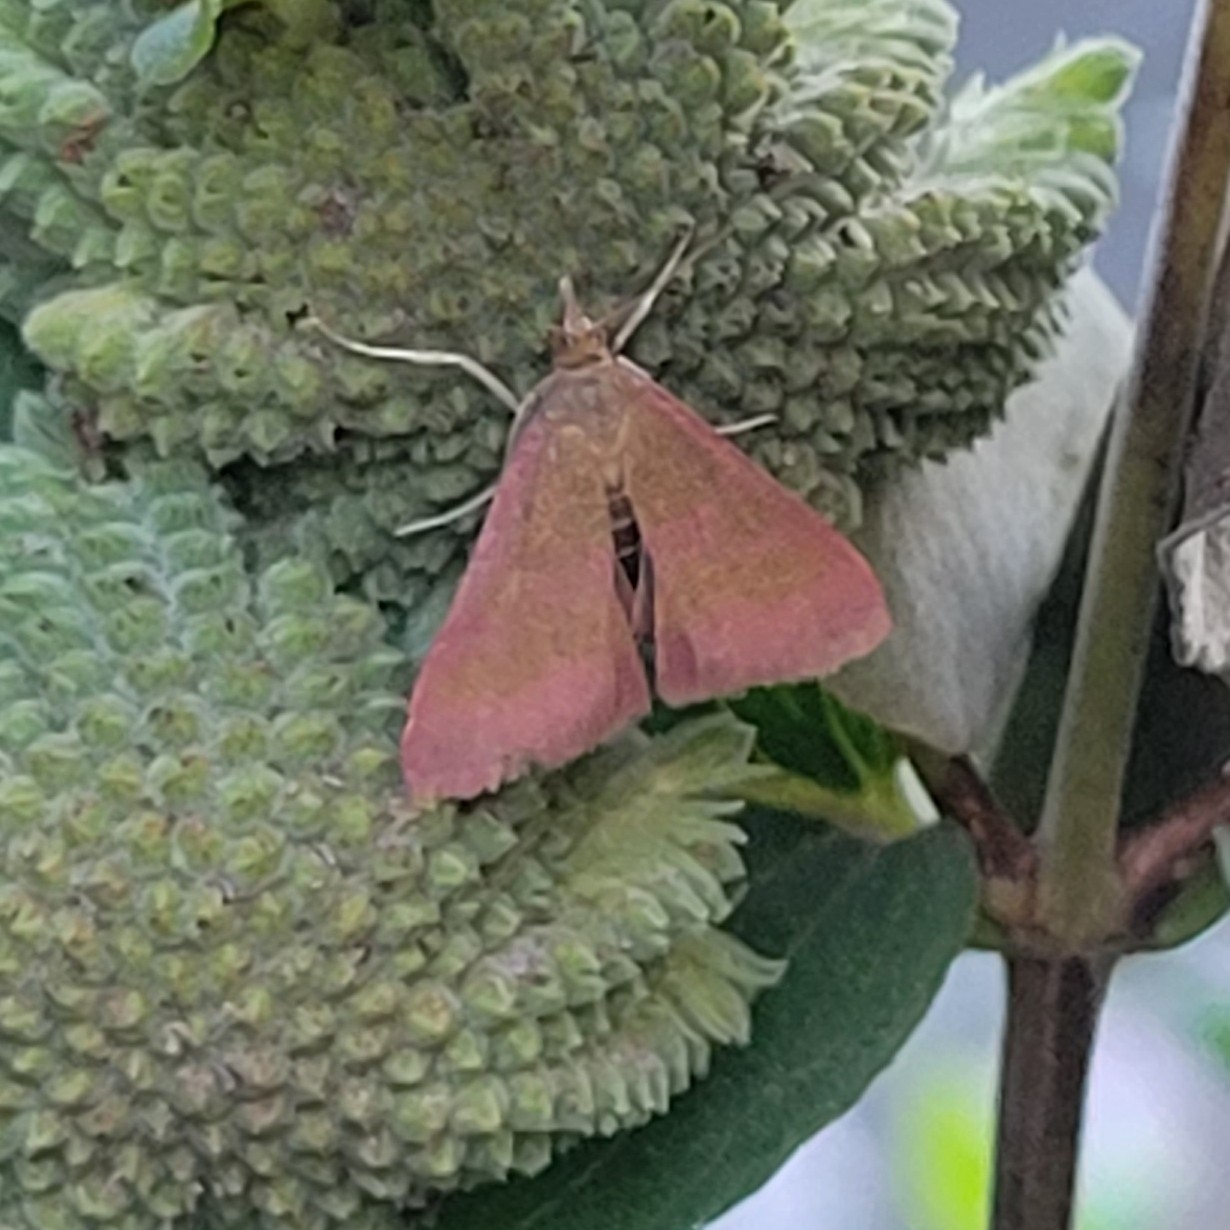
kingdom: Animalia
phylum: Arthropoda
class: Insecta
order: Lepidoptera
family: Crambidae
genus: Pyrausta
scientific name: Pyrausta laticlavia
